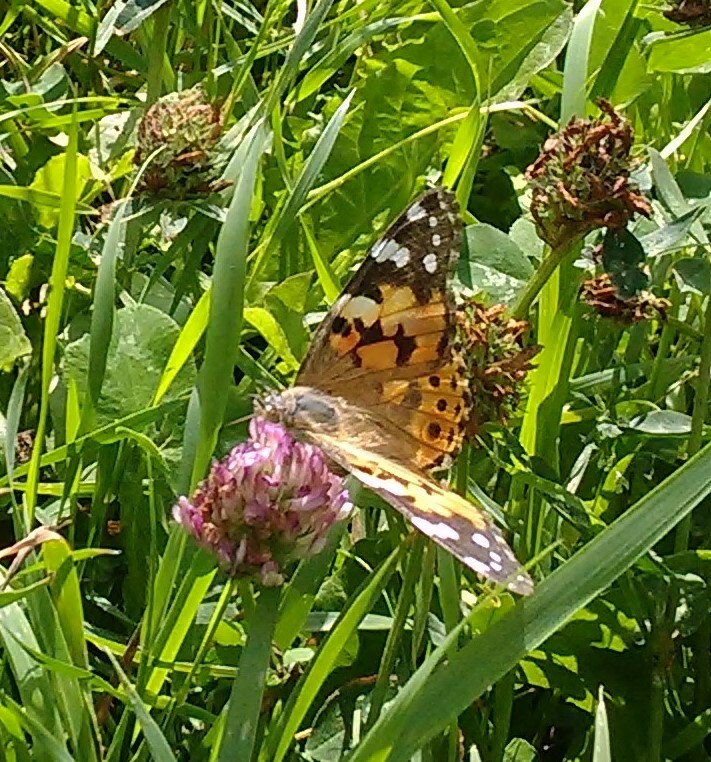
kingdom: Animalia
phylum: Arthropoda
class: Insecta
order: Lepidoptera
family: Nymphalidae
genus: Vanessa
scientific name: Vanessa cardui
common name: Painted lady
